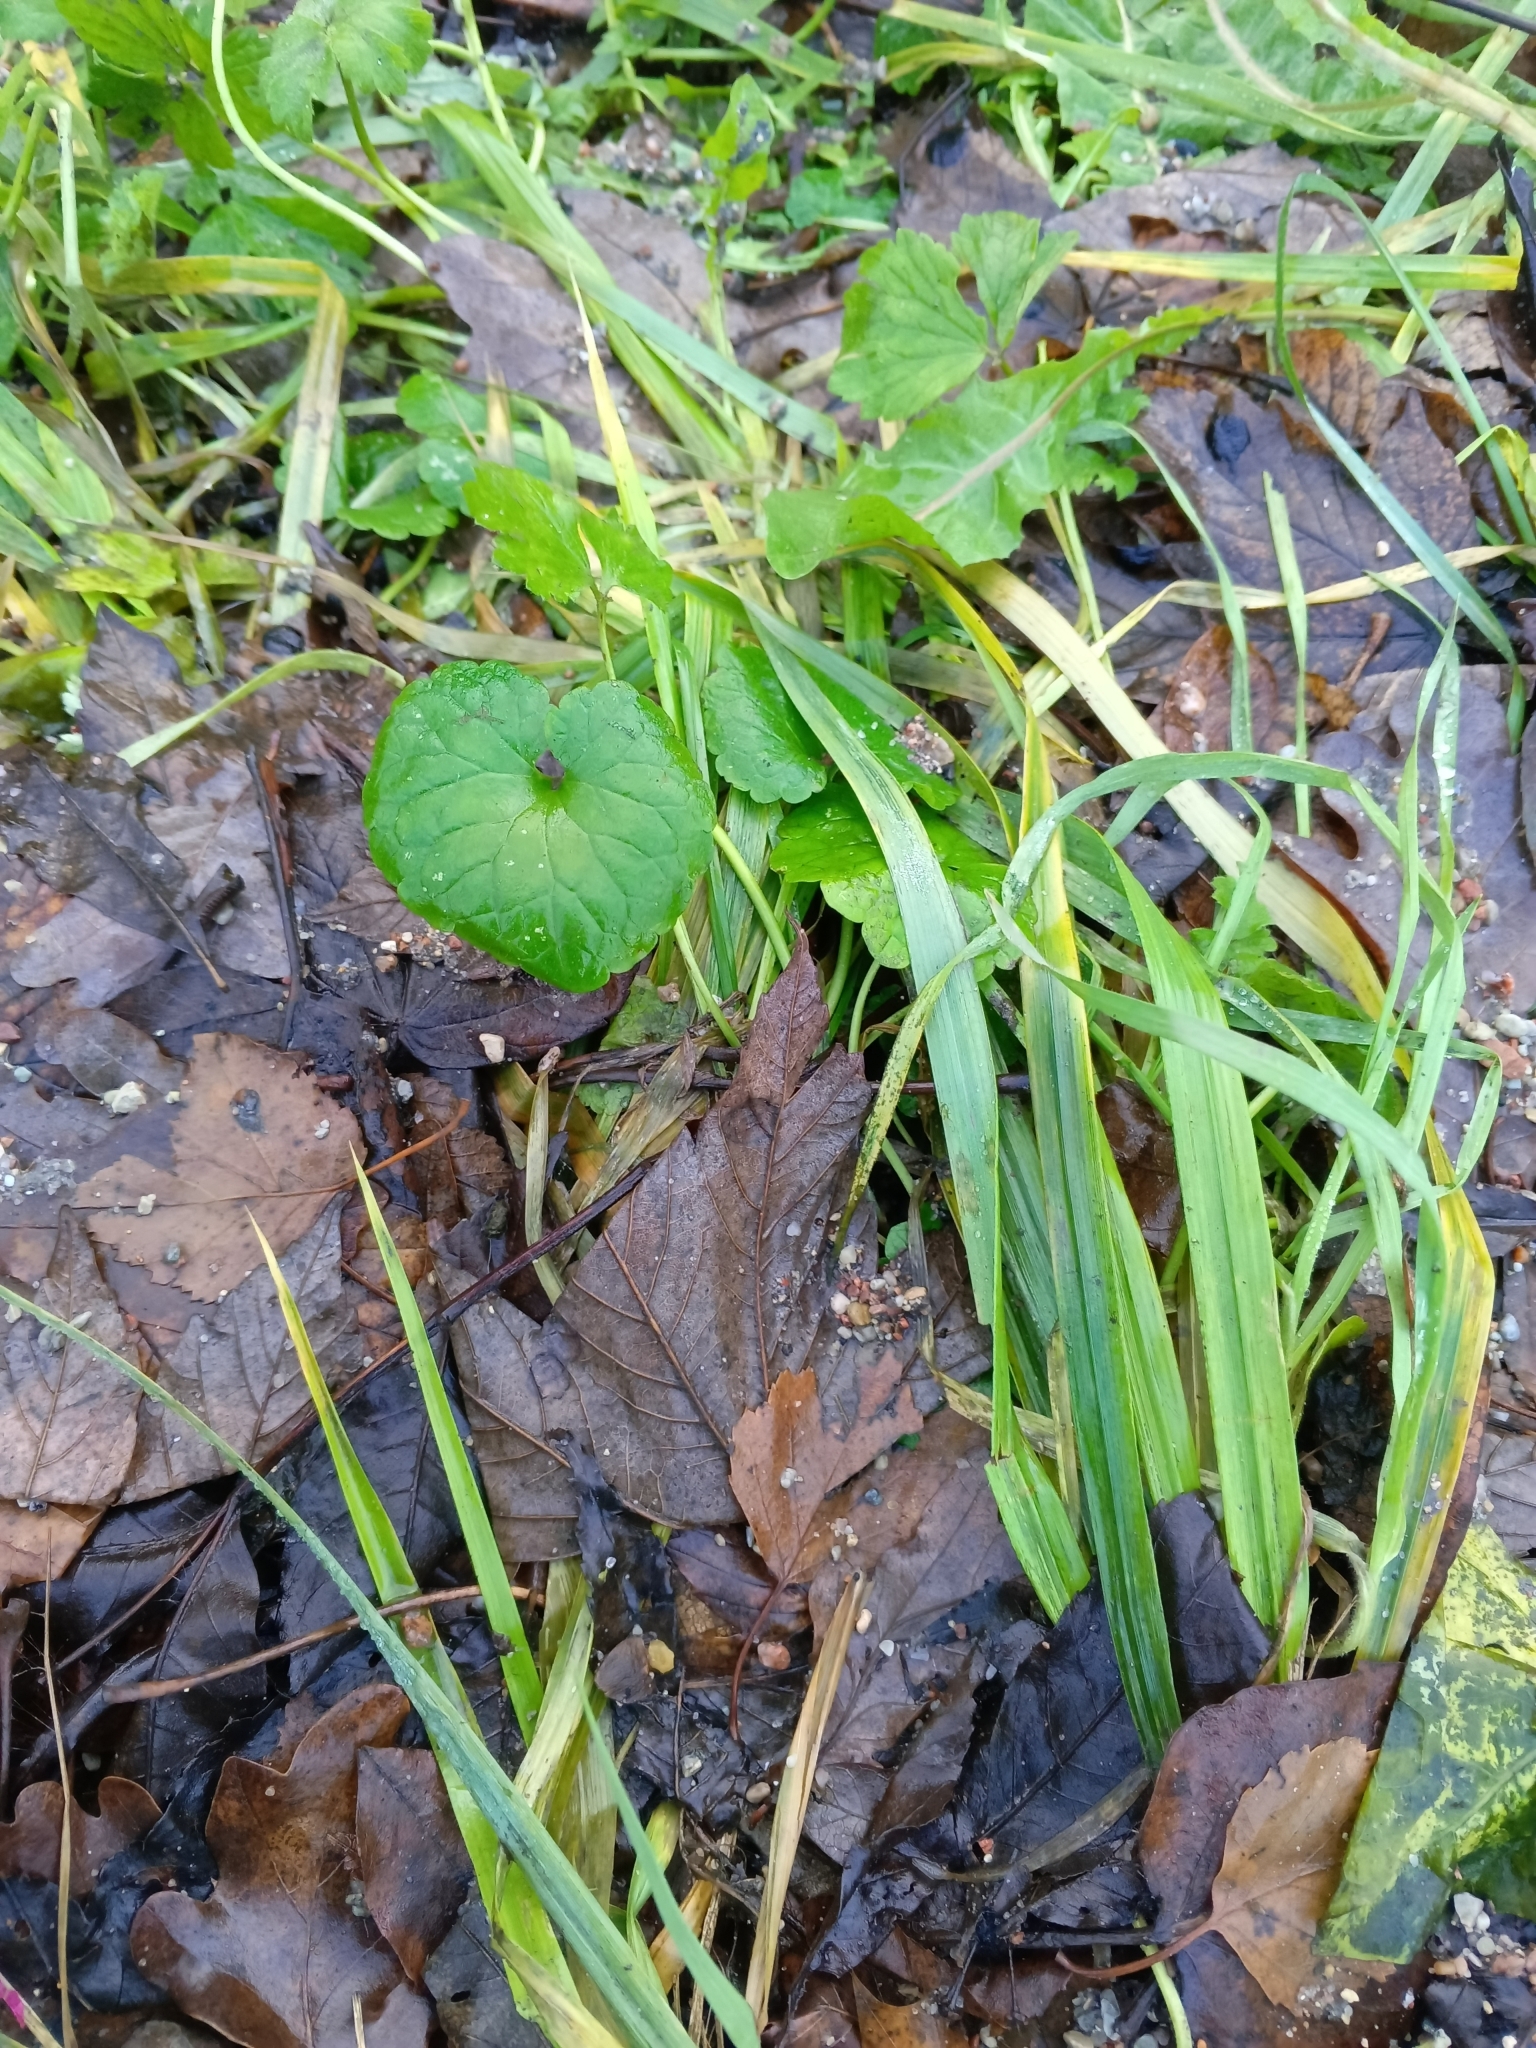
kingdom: Plantae
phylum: Tracheophyta
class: Magnoliopsida
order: Lamiales
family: Lamiaceae
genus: Glechoma
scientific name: Glechoma hederacea
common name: Ground ivy
